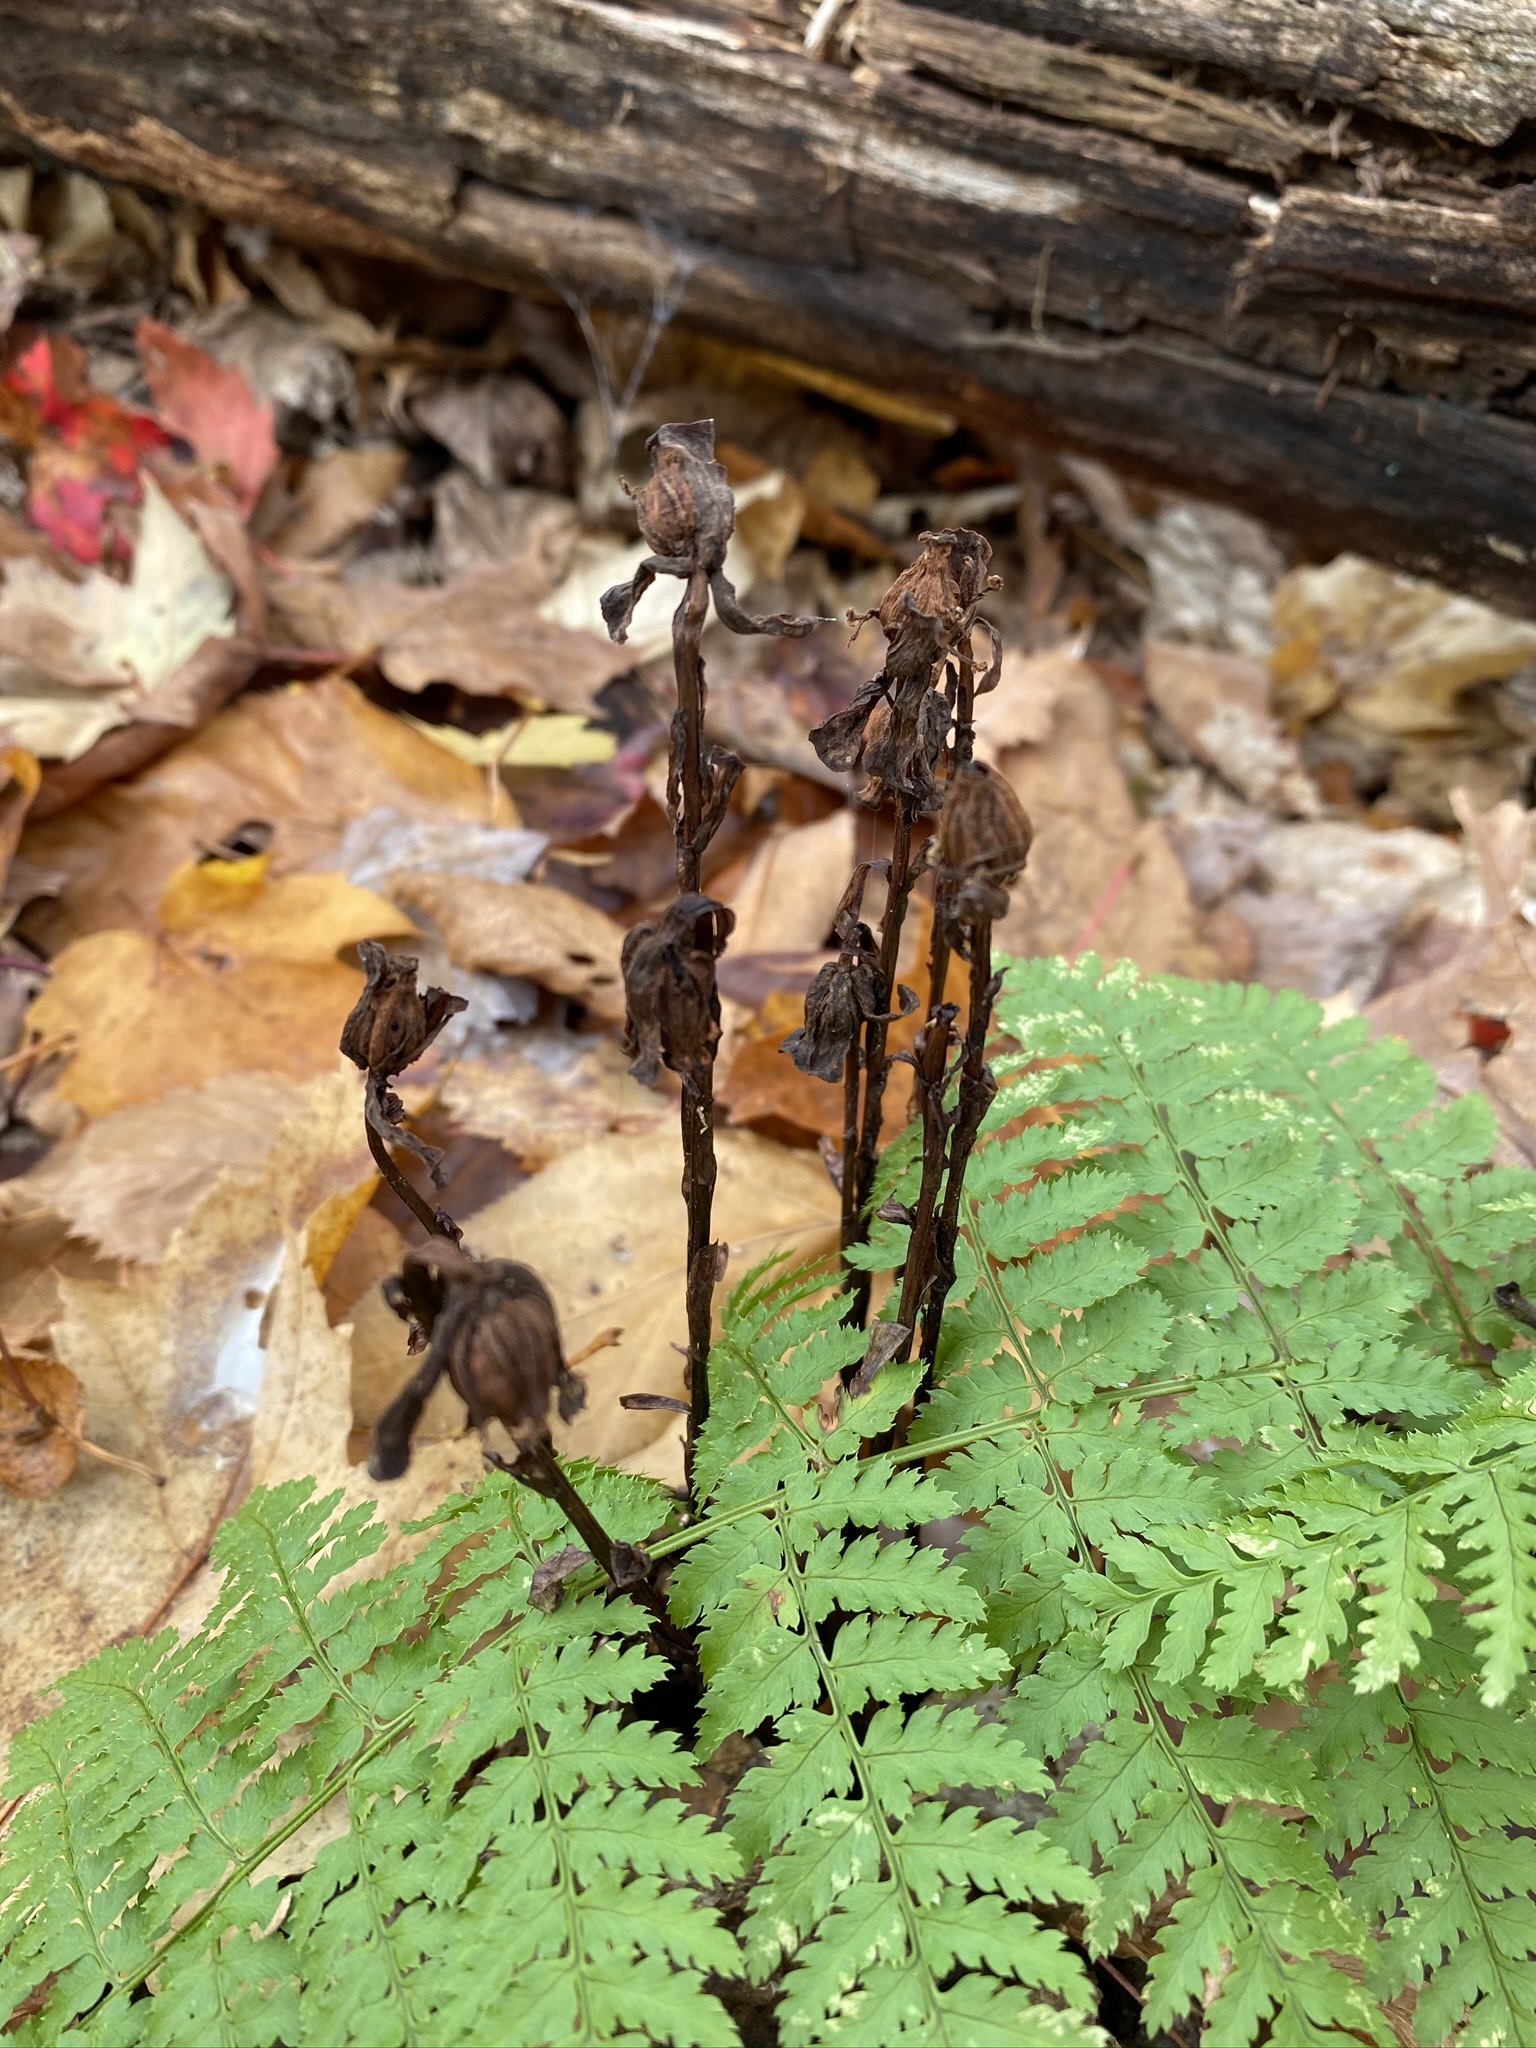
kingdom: Plantae
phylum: Tracheophyta
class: Magnoliopsida
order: Ericales
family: Ericaceae
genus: Monotropa
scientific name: Monotropa uniflora
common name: Convulsion root
